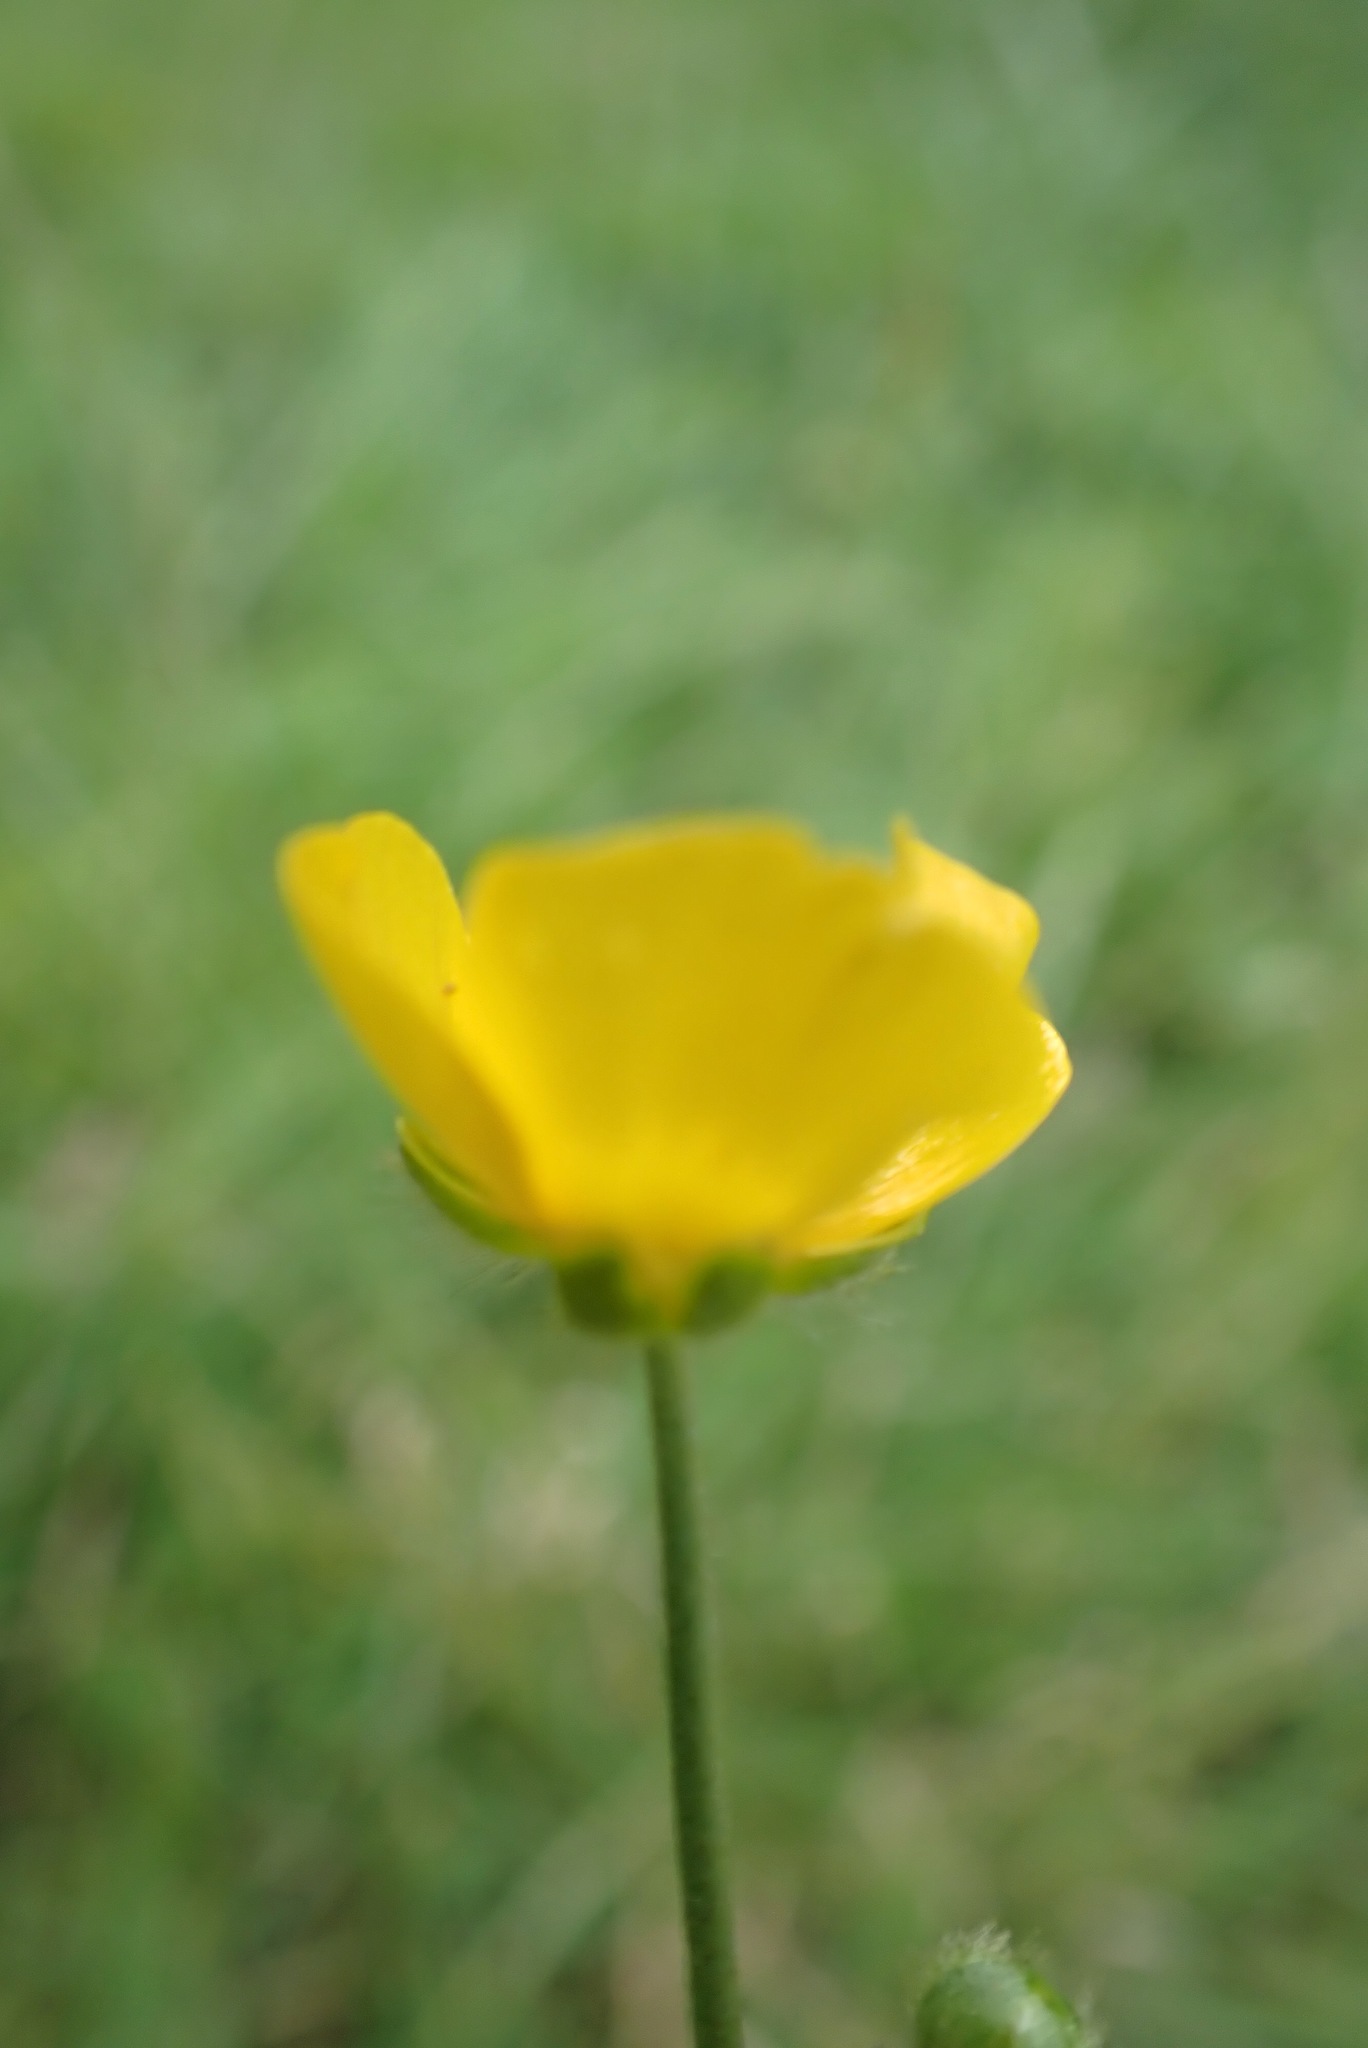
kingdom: Plantae
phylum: Tracheophyta
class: Magnoliopsida
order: Ranunculales
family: Ranunculaceae
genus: Ranunculus
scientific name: Ranunculus acris
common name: Meadow buttercup
